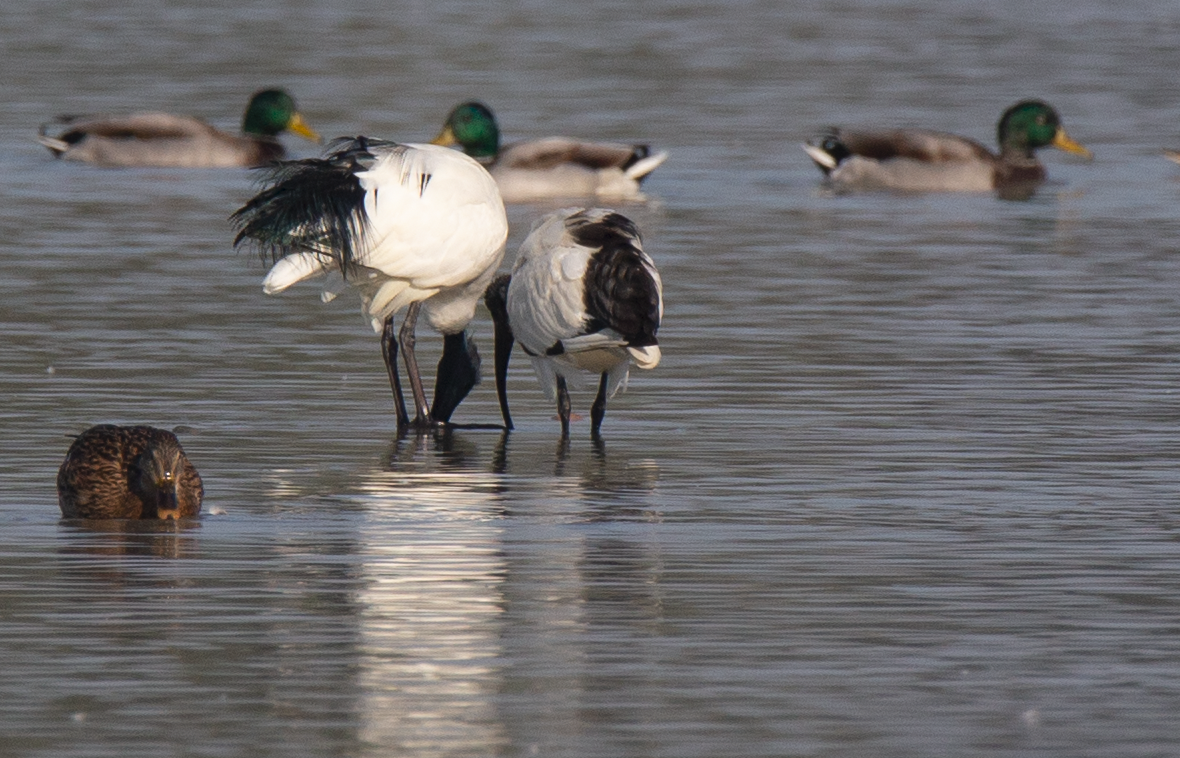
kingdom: Animalia
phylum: Chordata
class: Aves
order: Pelecaniformes
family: Threskiornithidae
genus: Threskiornis
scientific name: Threskiornis aethiopicus
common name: Sacred ibis
